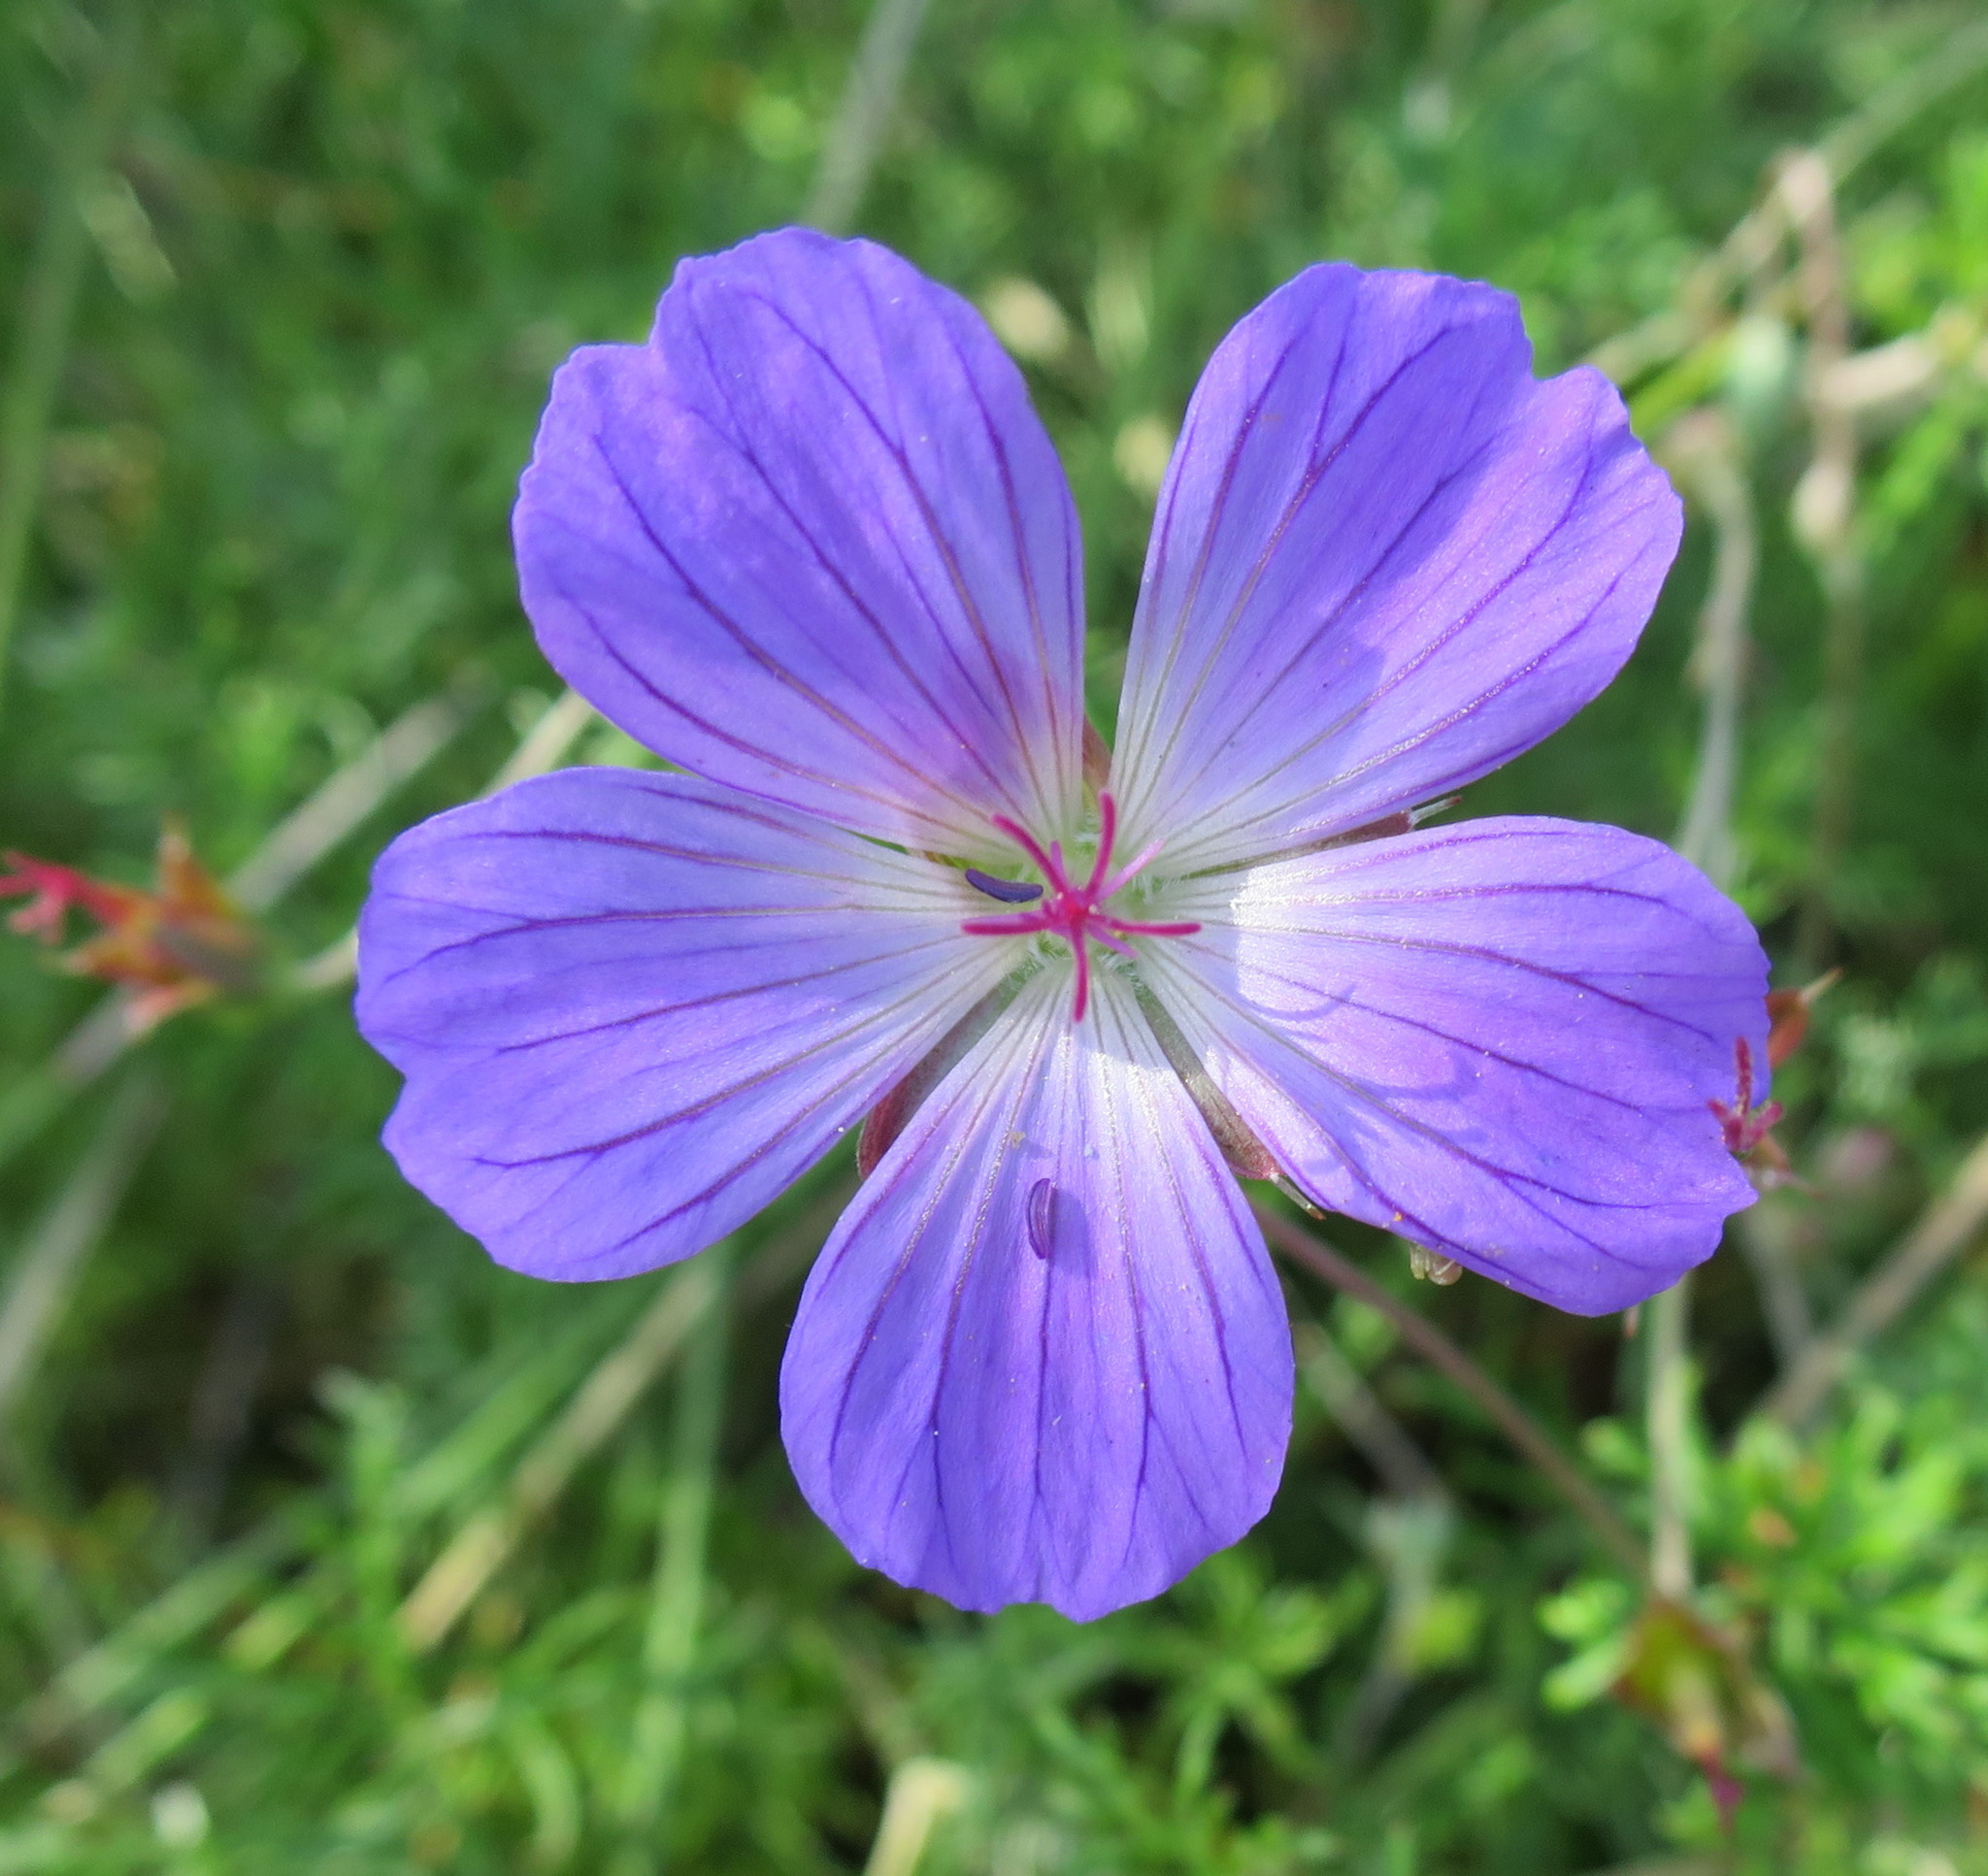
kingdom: Plantae
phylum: Tracheophyta
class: Magnoliopsida
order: Geraniales
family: Geraniaceae
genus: Geranium
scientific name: Geranium incanum
